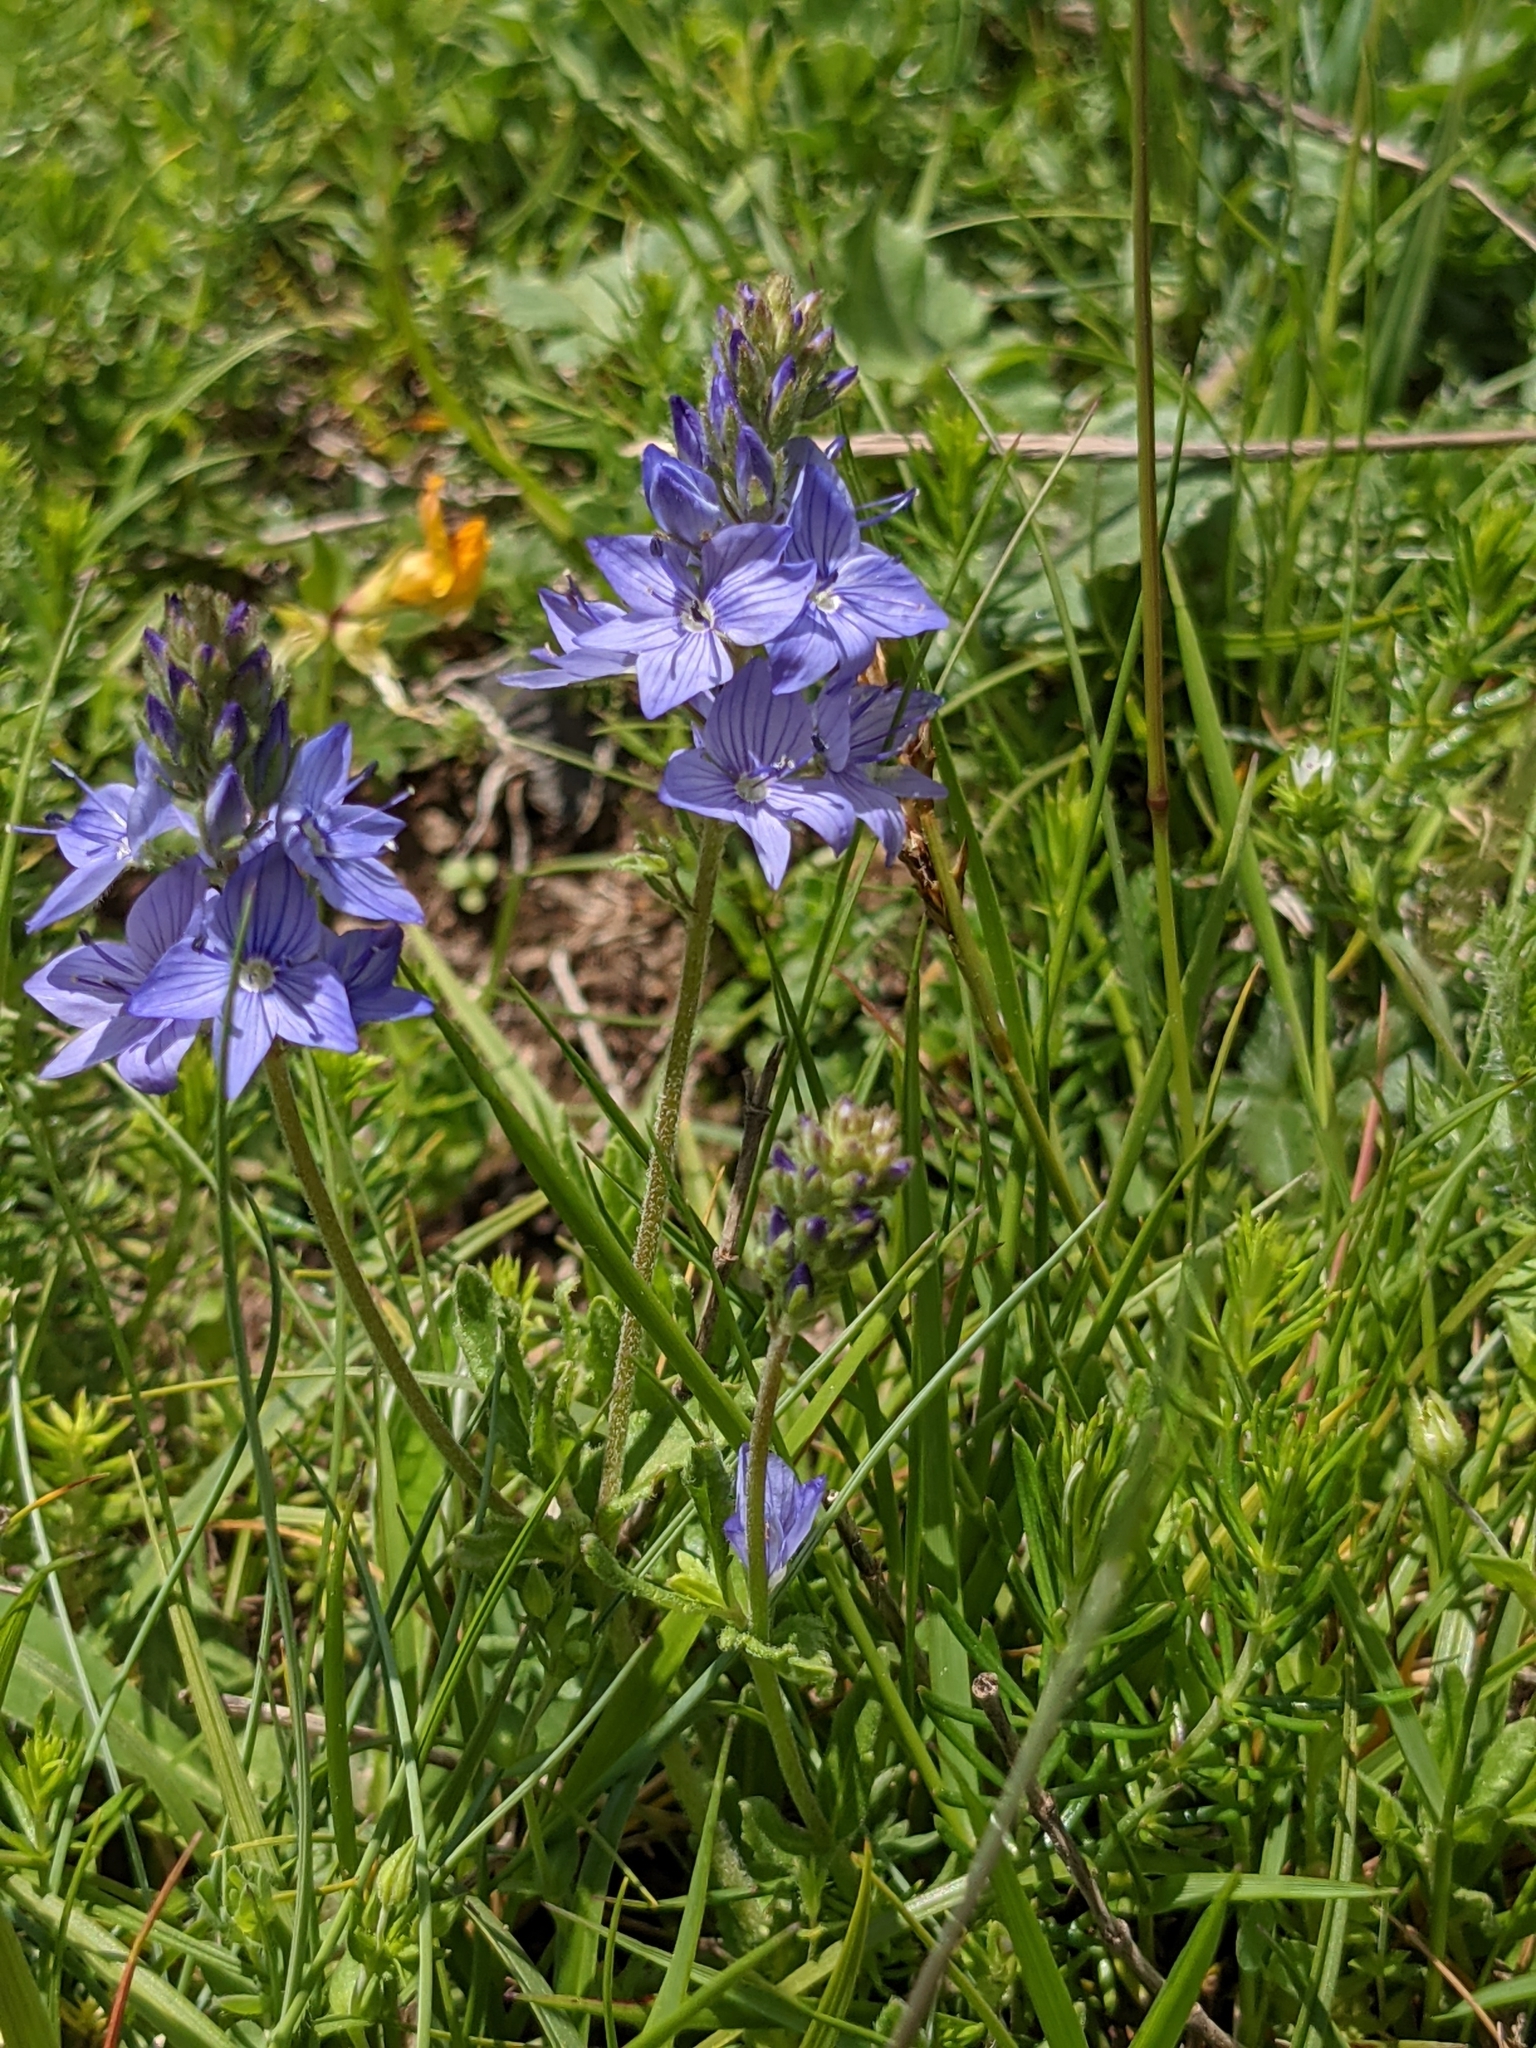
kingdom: Plantae
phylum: Tracheophyta
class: Magnoliopsida
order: Lamiales
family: Plantaginaceae
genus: Veronica
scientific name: Veronica orsiniana
